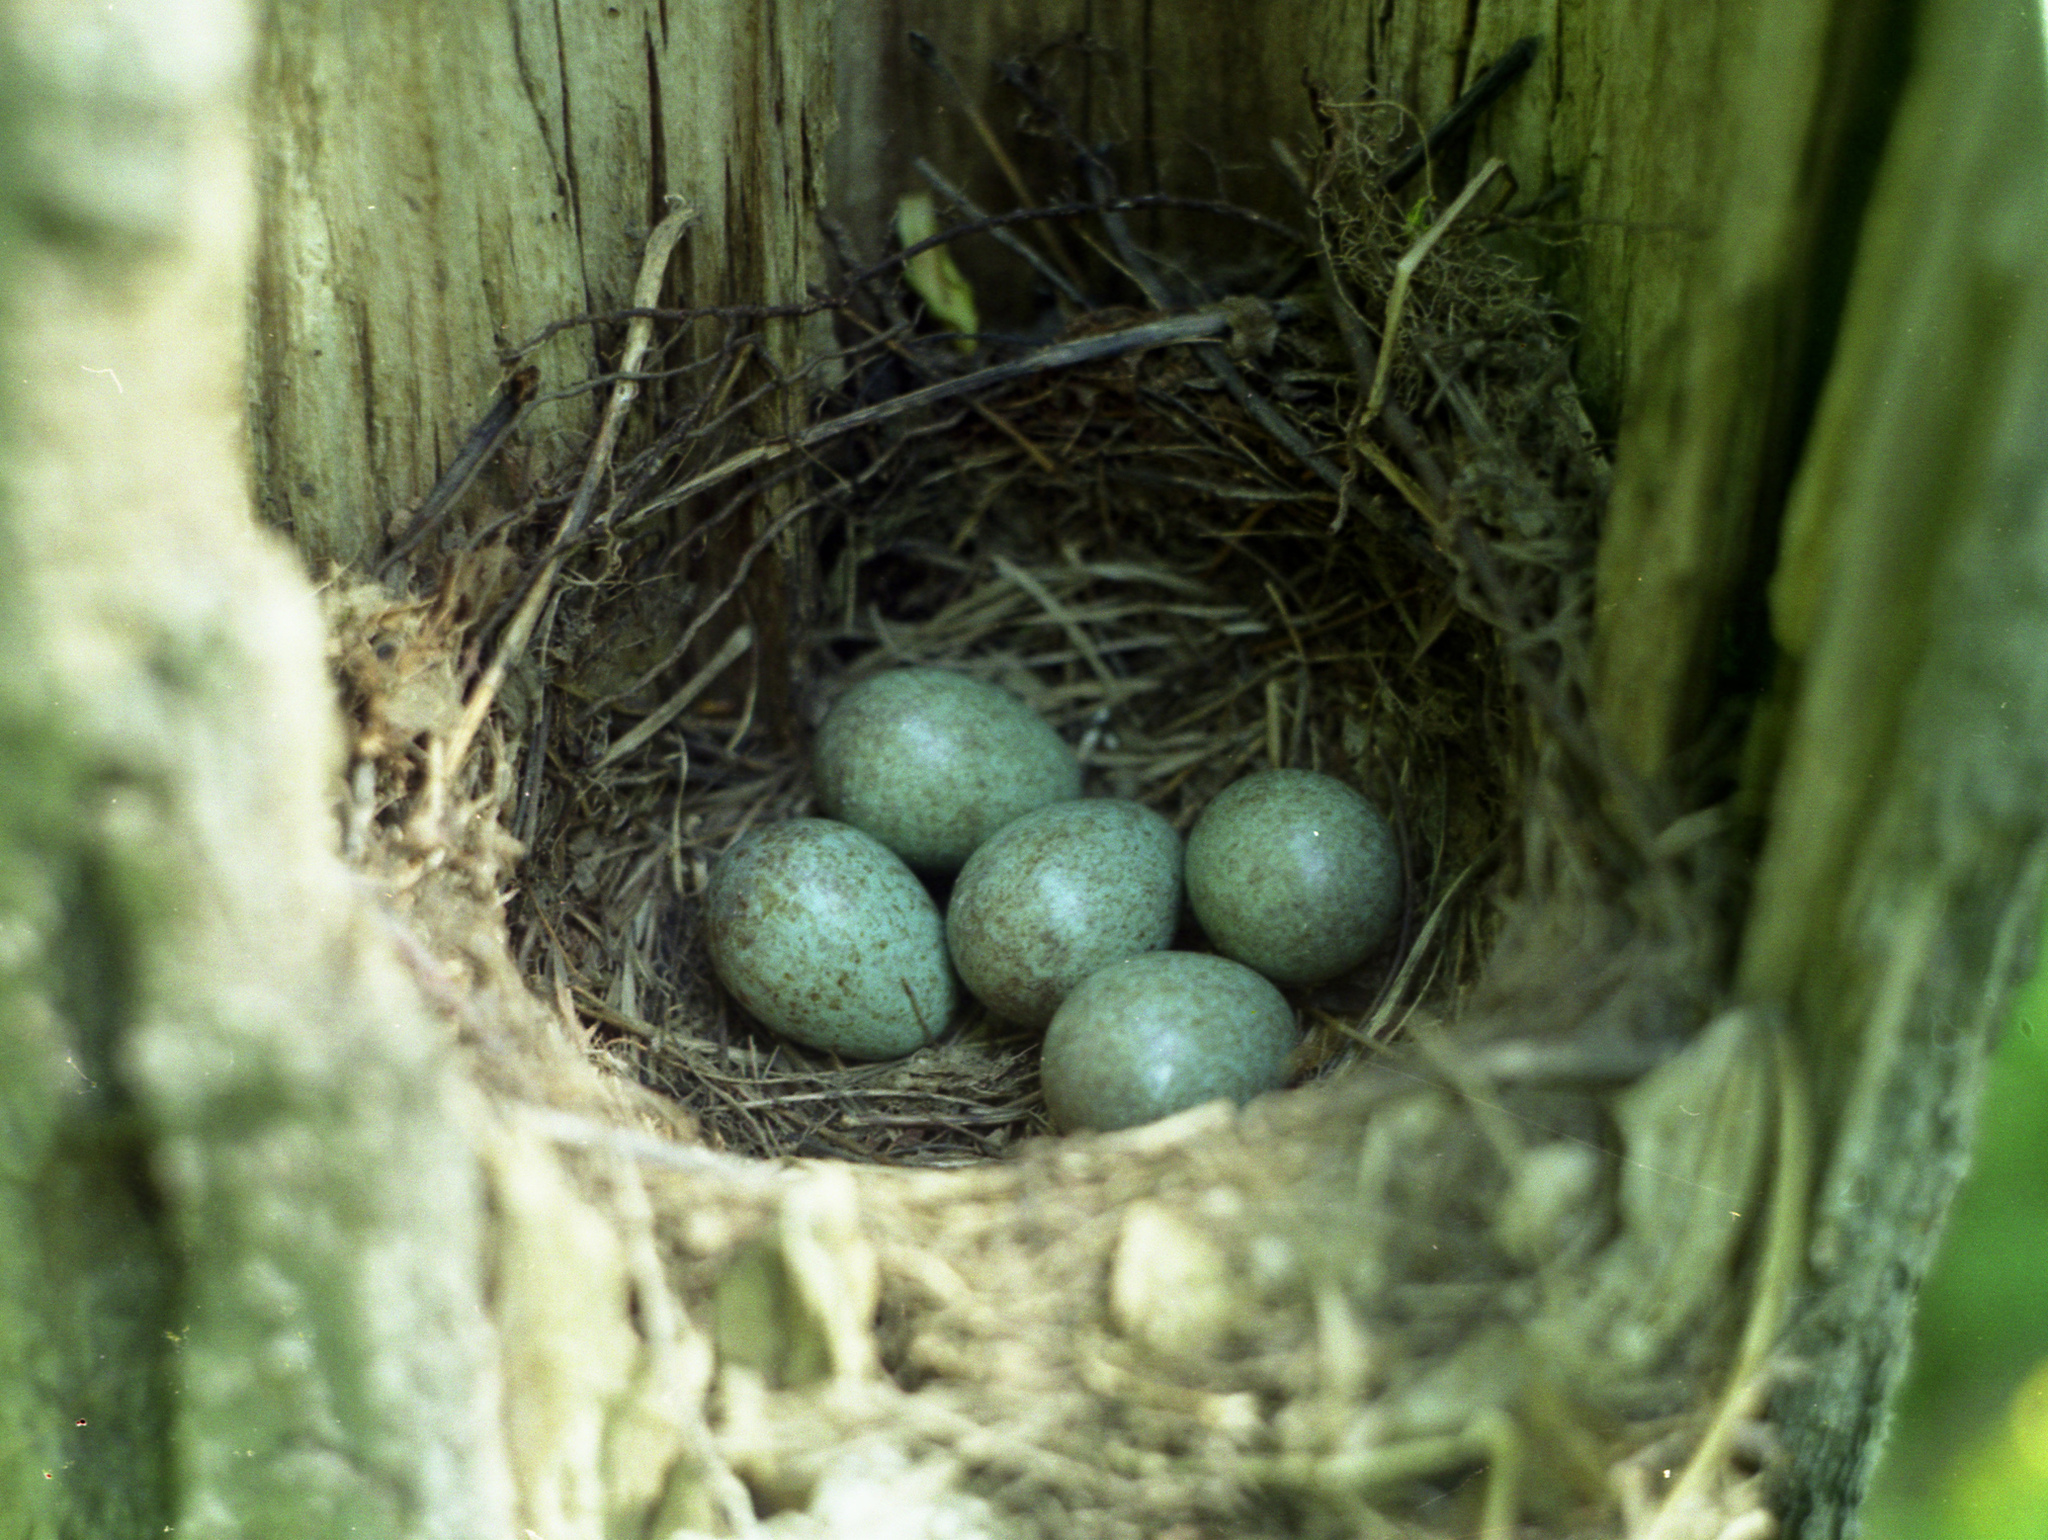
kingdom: Animalia
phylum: Chordata
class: Aves
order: Passeriformes
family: Turdidae
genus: Turdus
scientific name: Turdus merula
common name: Common blackbird
